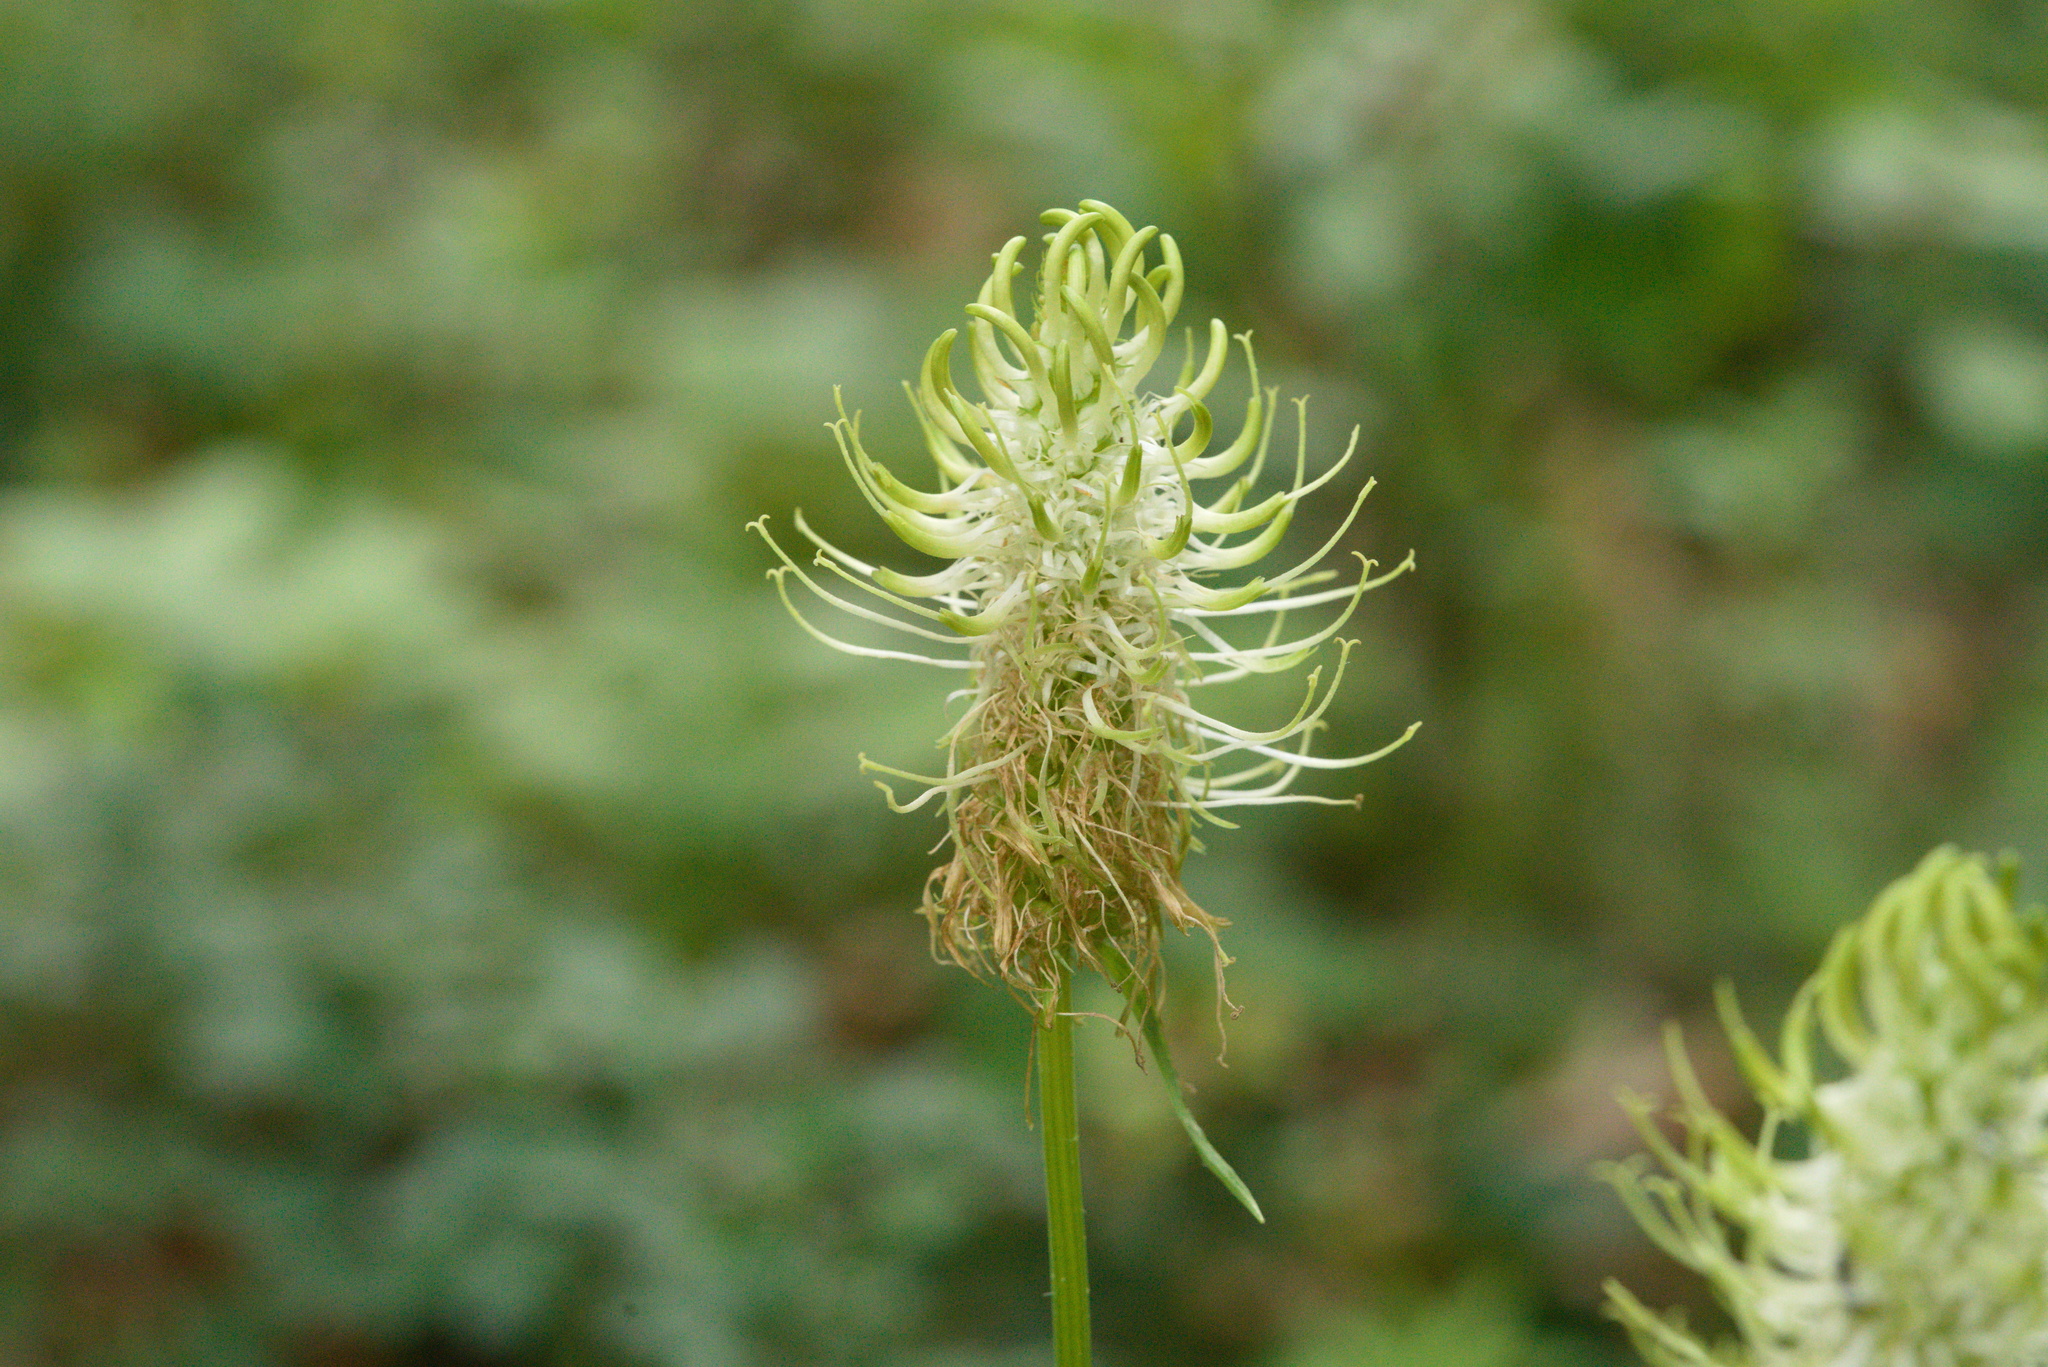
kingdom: Plantae
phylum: Tracheophyta
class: Magnoliopsida
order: Asterales
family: Campanulaceae
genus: Phyteuma
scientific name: Phyteuma spicatum
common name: Spiked rampion
